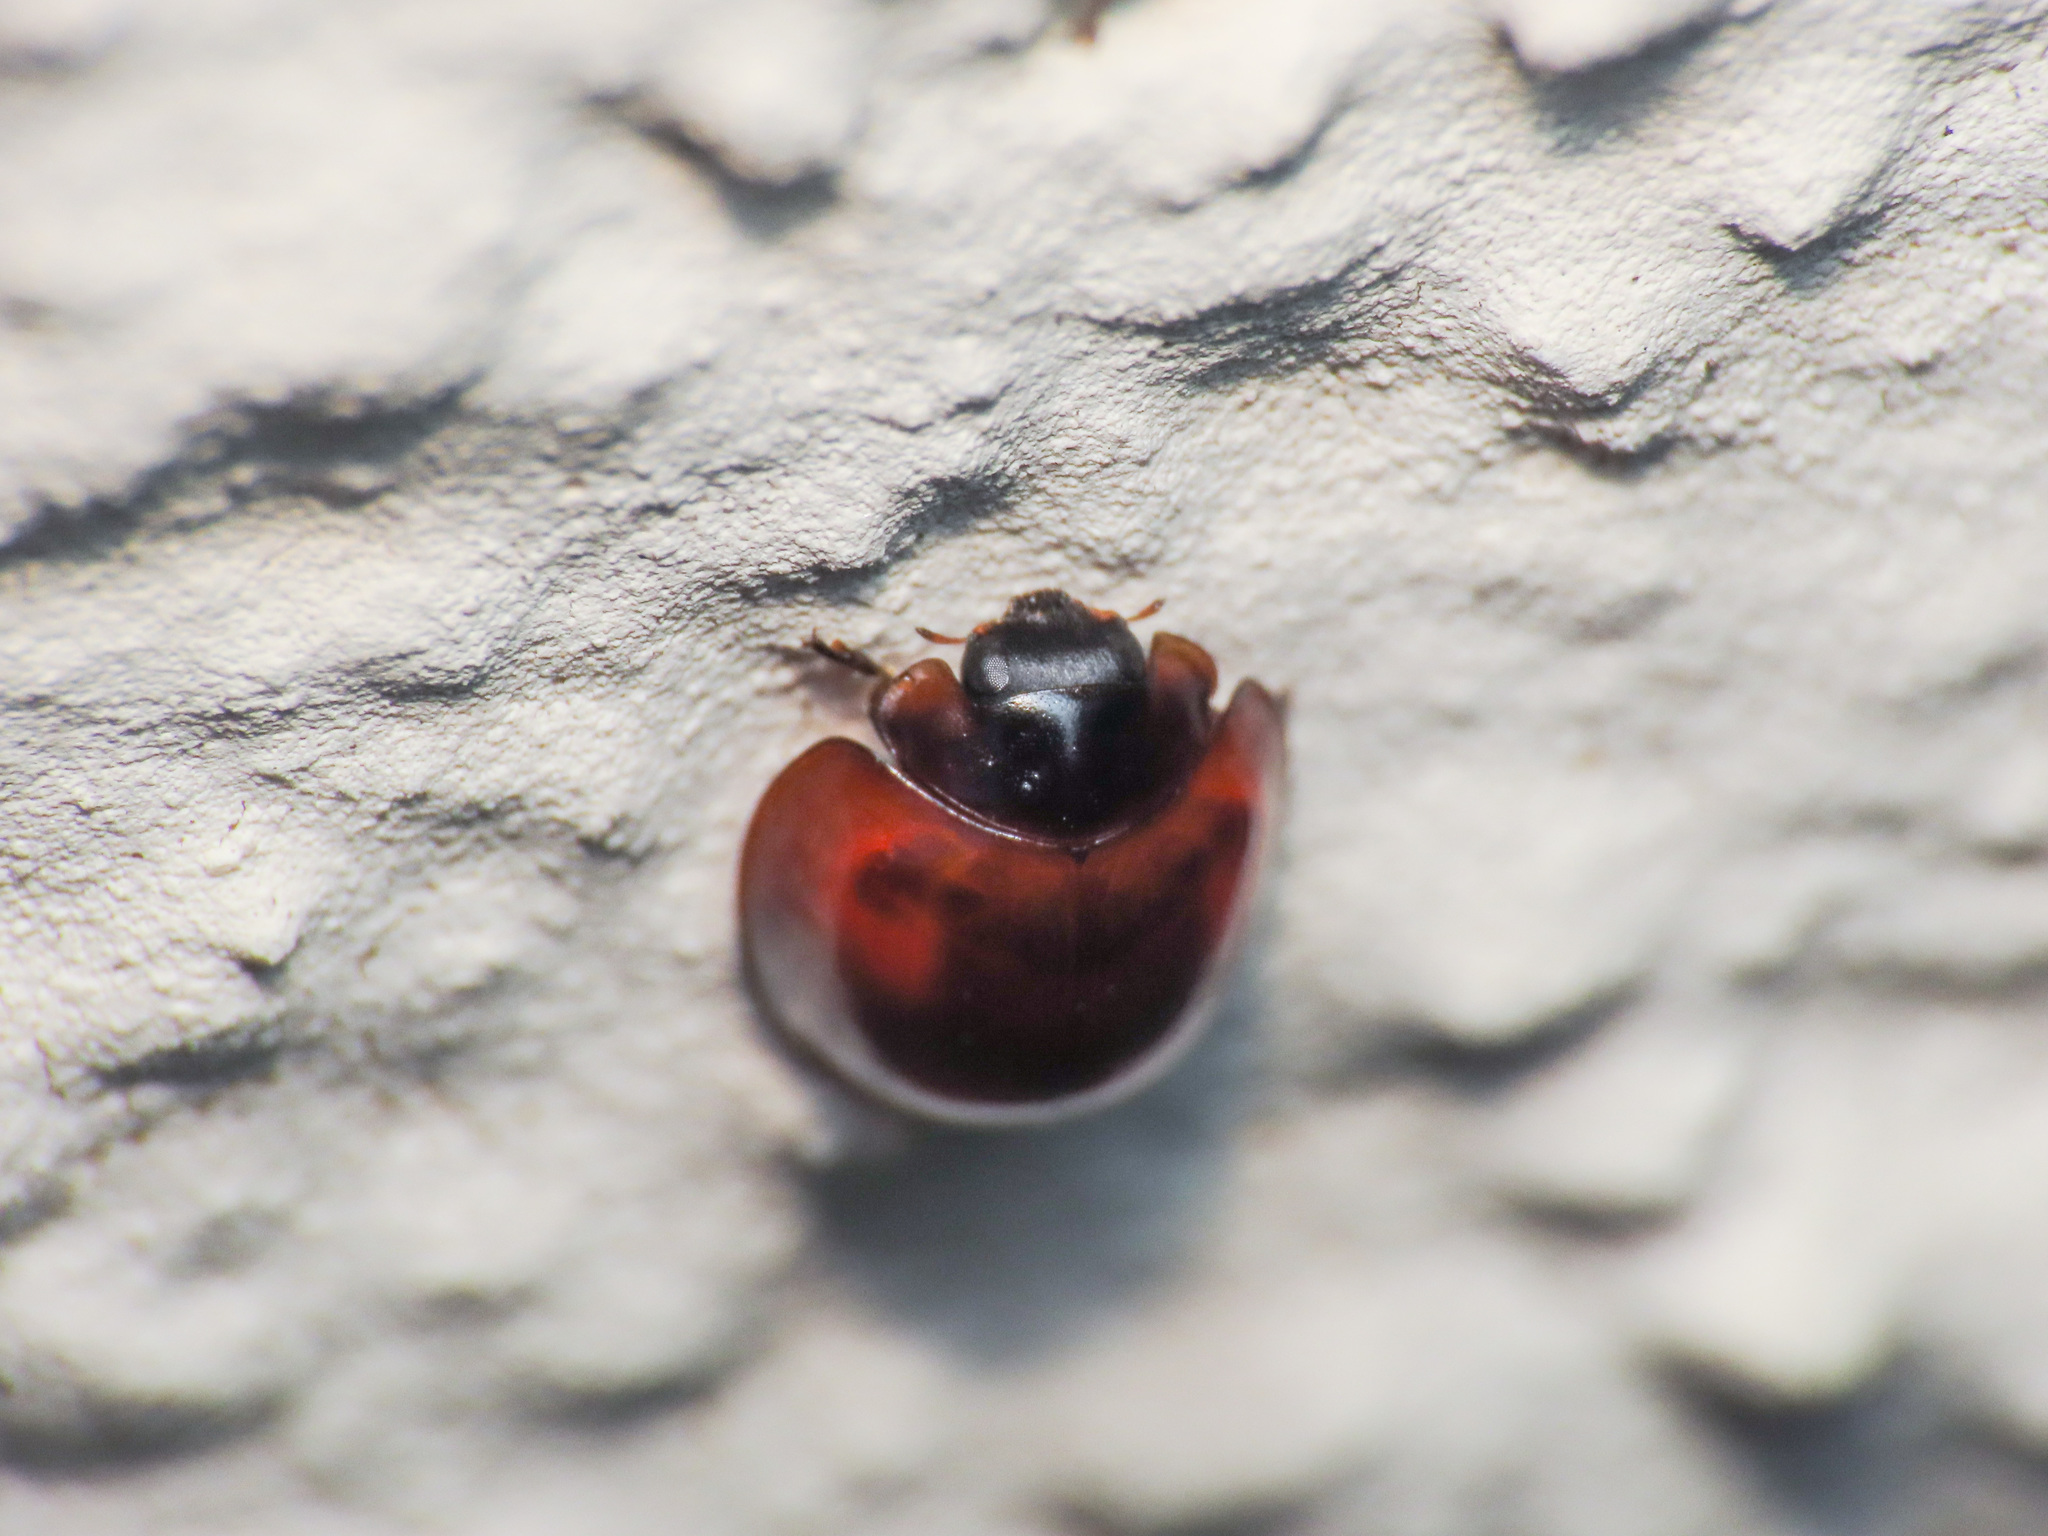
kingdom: Animalia
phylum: Arthropoda
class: Insecta
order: Coleoptera
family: Coccinellidae
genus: Brumus
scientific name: Brumus quadripustulatus
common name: Ladybird beetle
